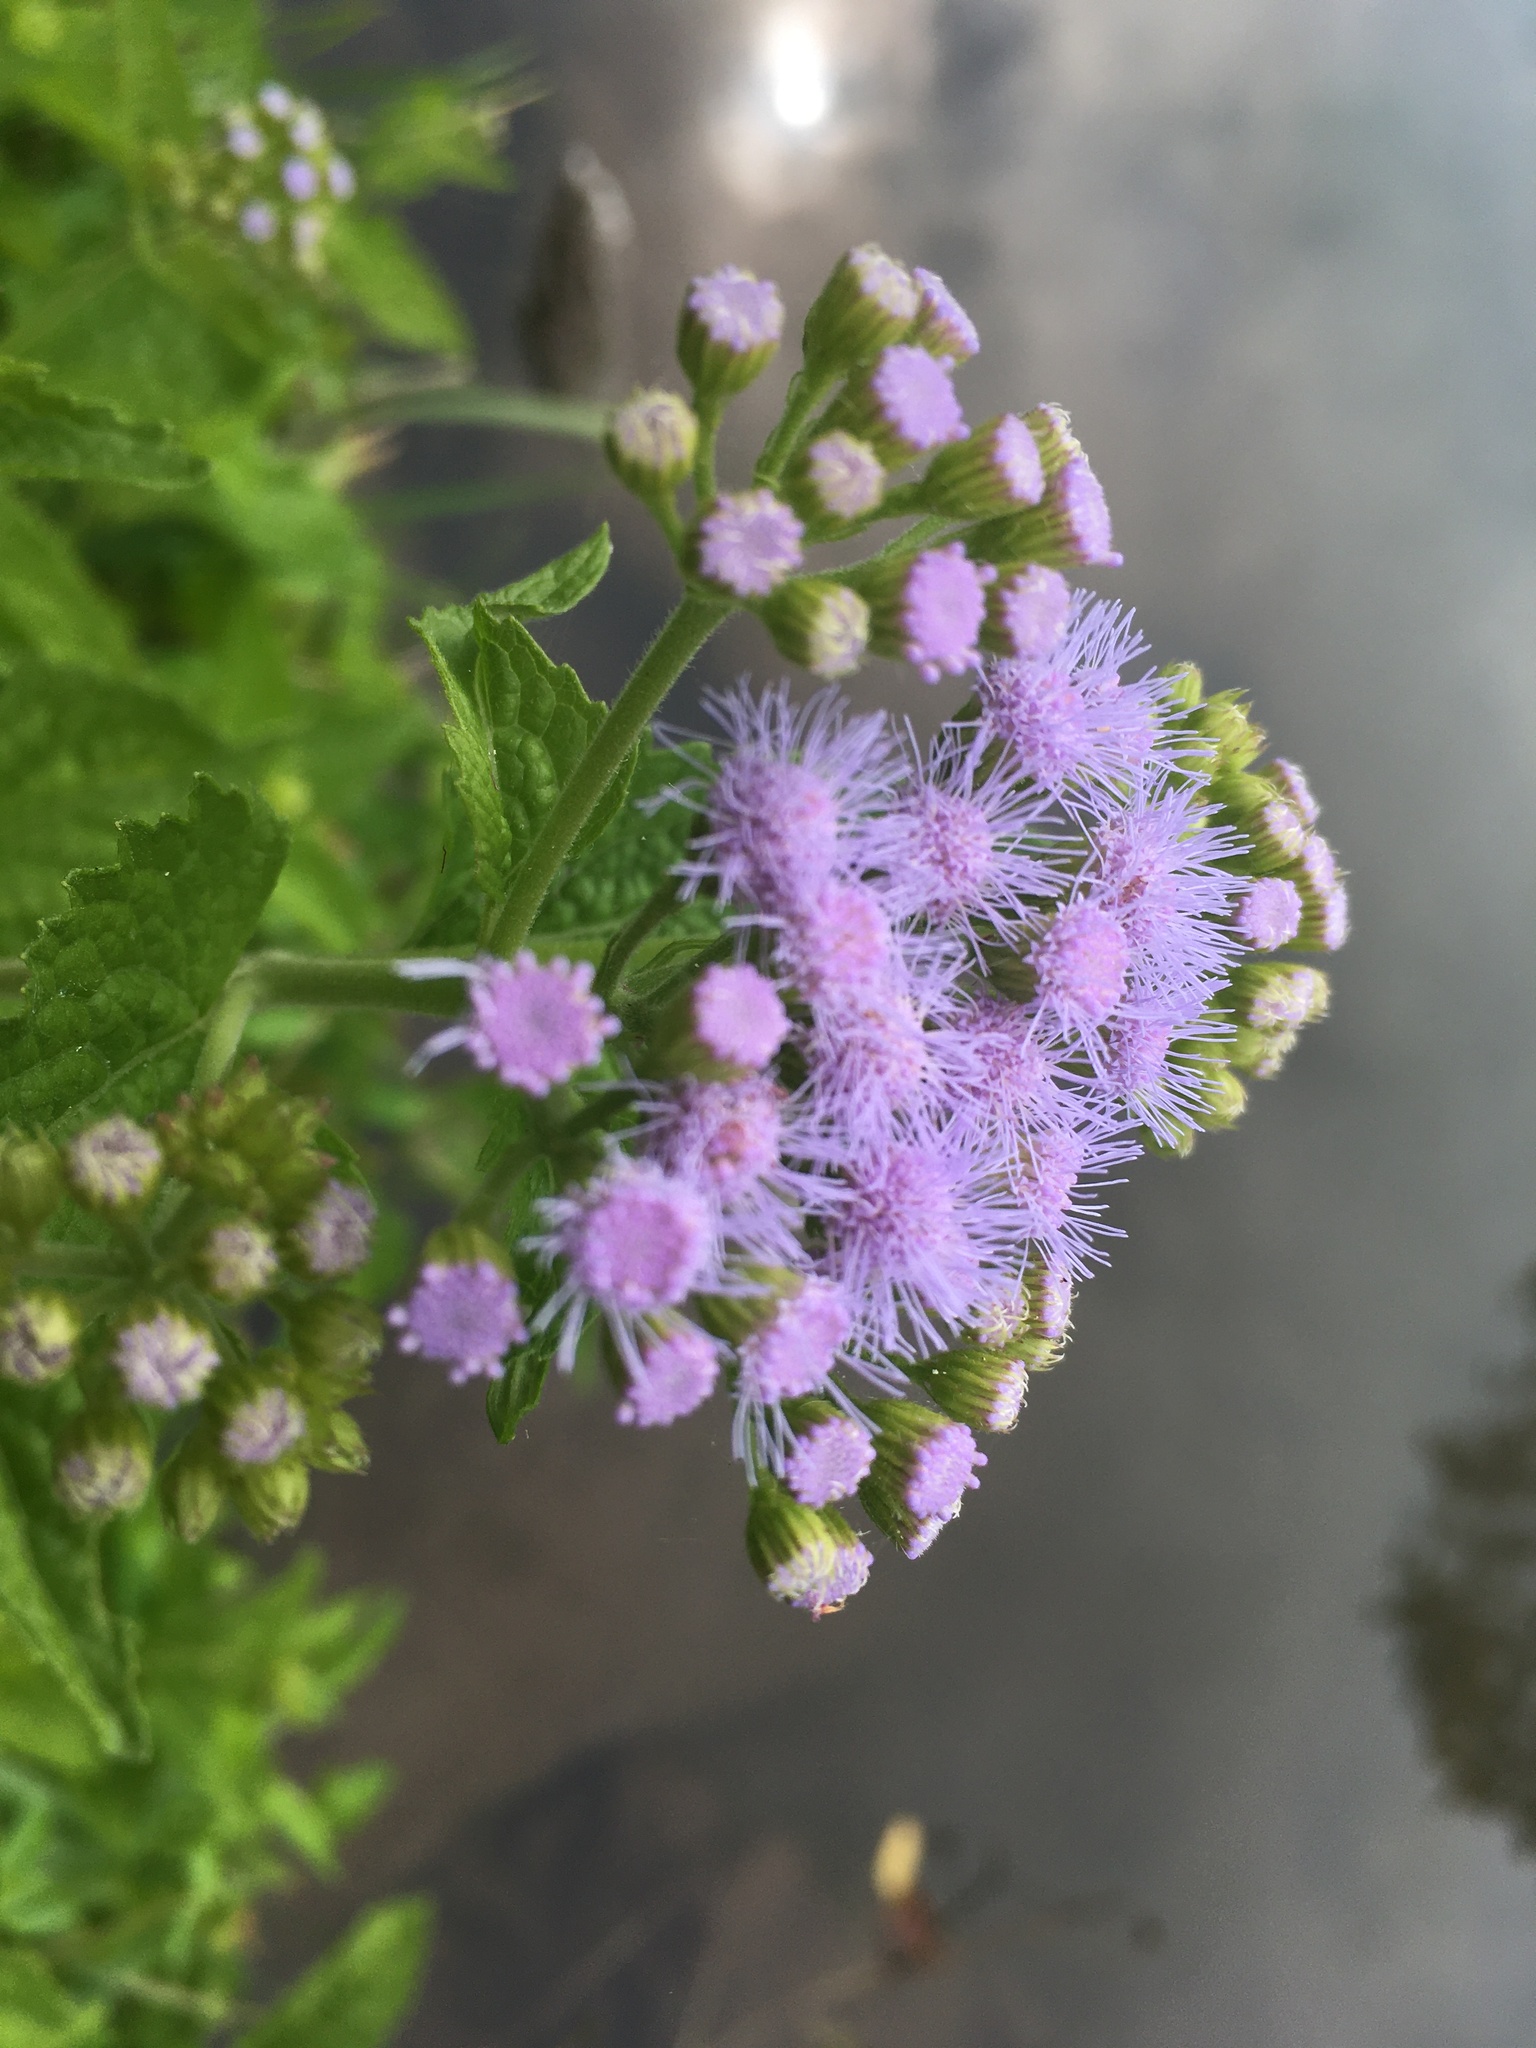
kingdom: Plantae
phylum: Tracheophyta
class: Magnoliopsida
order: Asterales
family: Asteraceae
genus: Conoclinium
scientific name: Conoclinium coelestinum
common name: Blue mistflower
